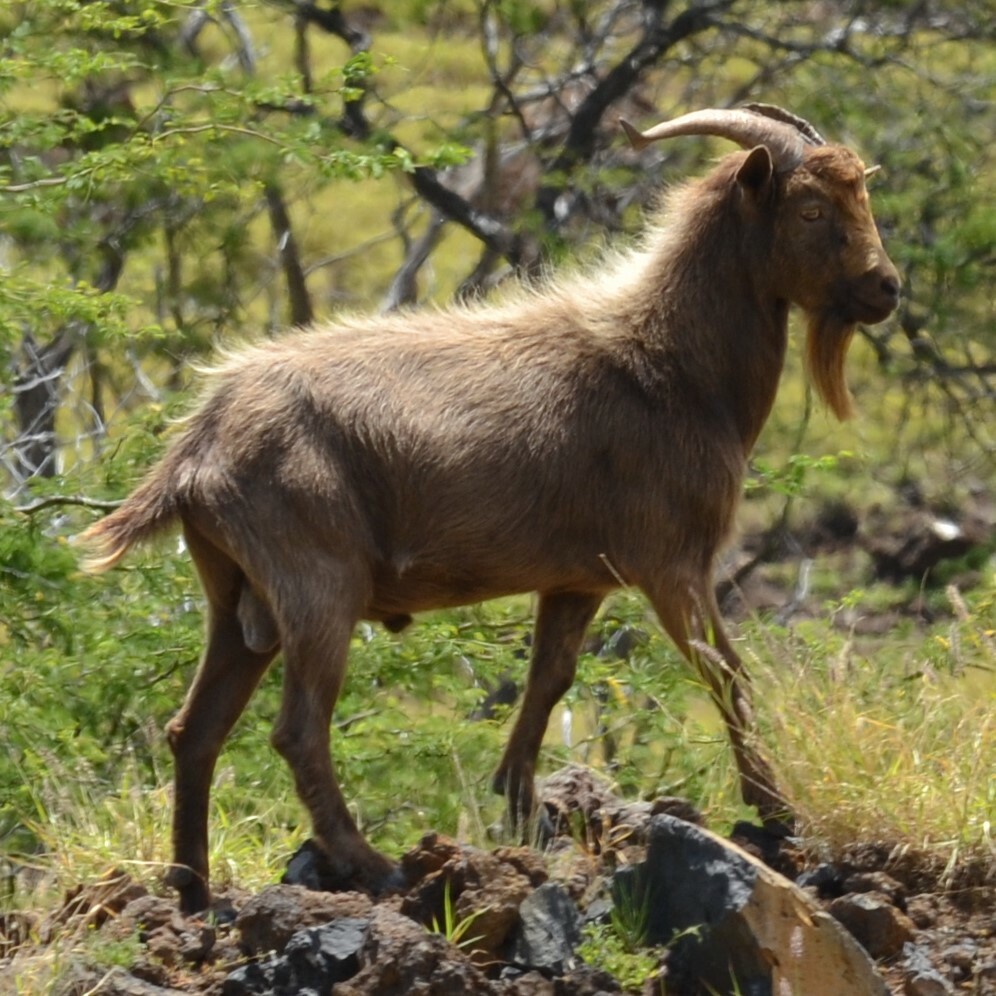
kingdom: Animalia
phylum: Chordata
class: Mammalia
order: Artiodactyla
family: Bovidae
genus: Capra
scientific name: Capra hircus
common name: Domestic goat
